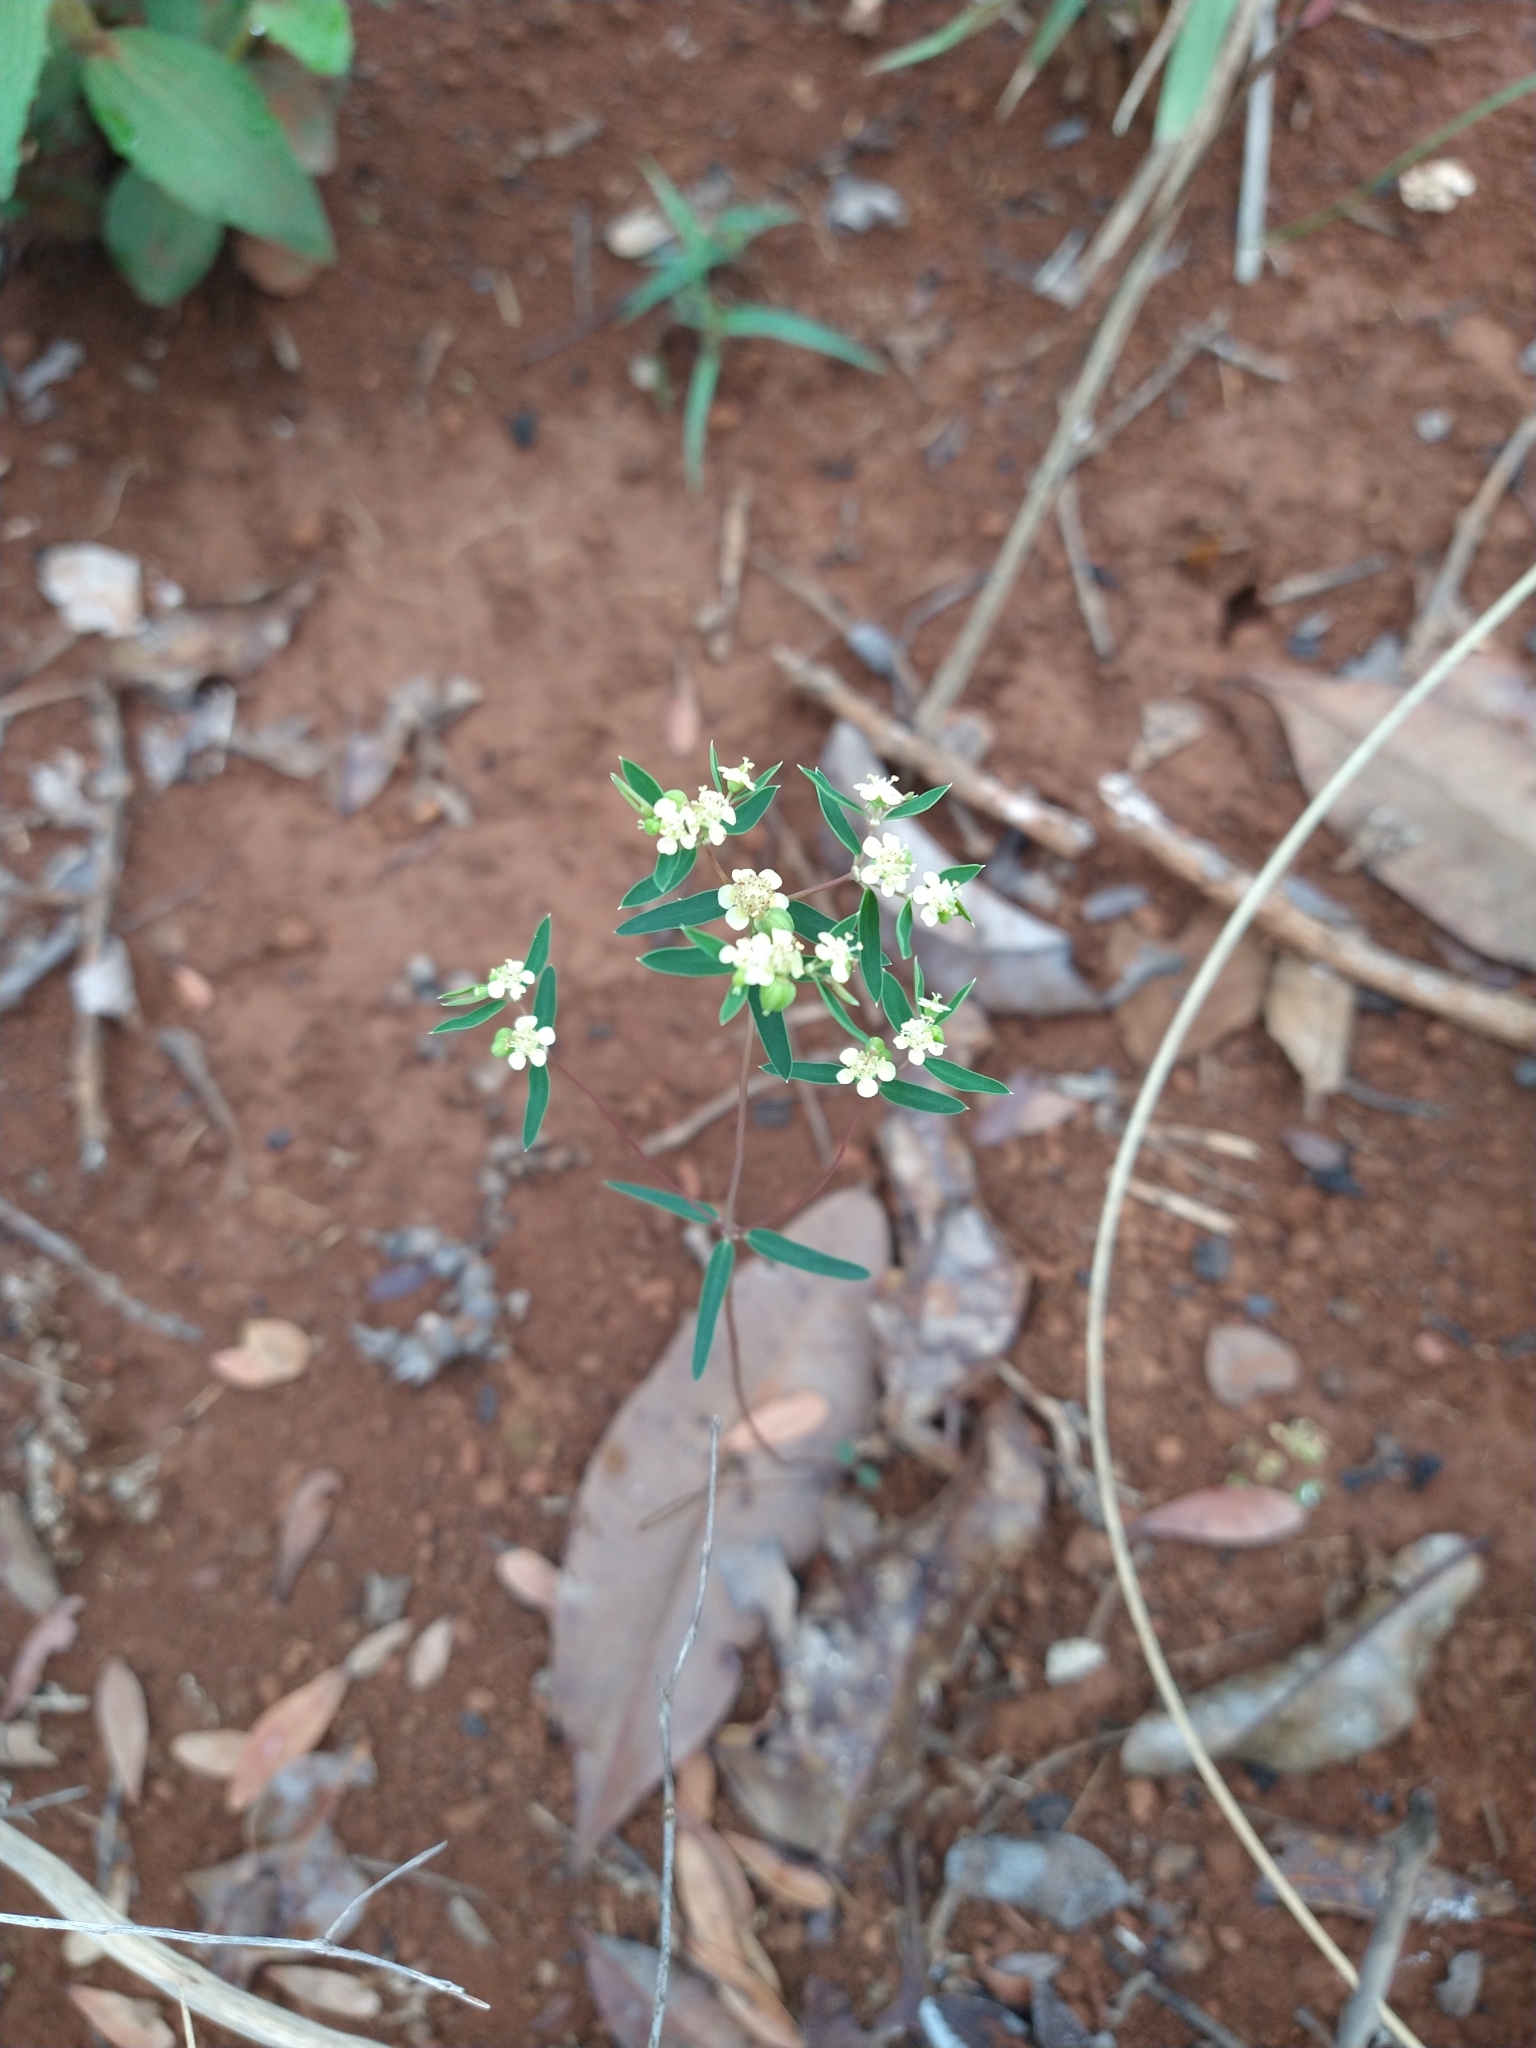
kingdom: Plantae
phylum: Tracheophyta
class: Magnoliopsida
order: Malpighiales
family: Euphorbiaceae
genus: Euphorbia
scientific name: Euphorbia potentilloides
